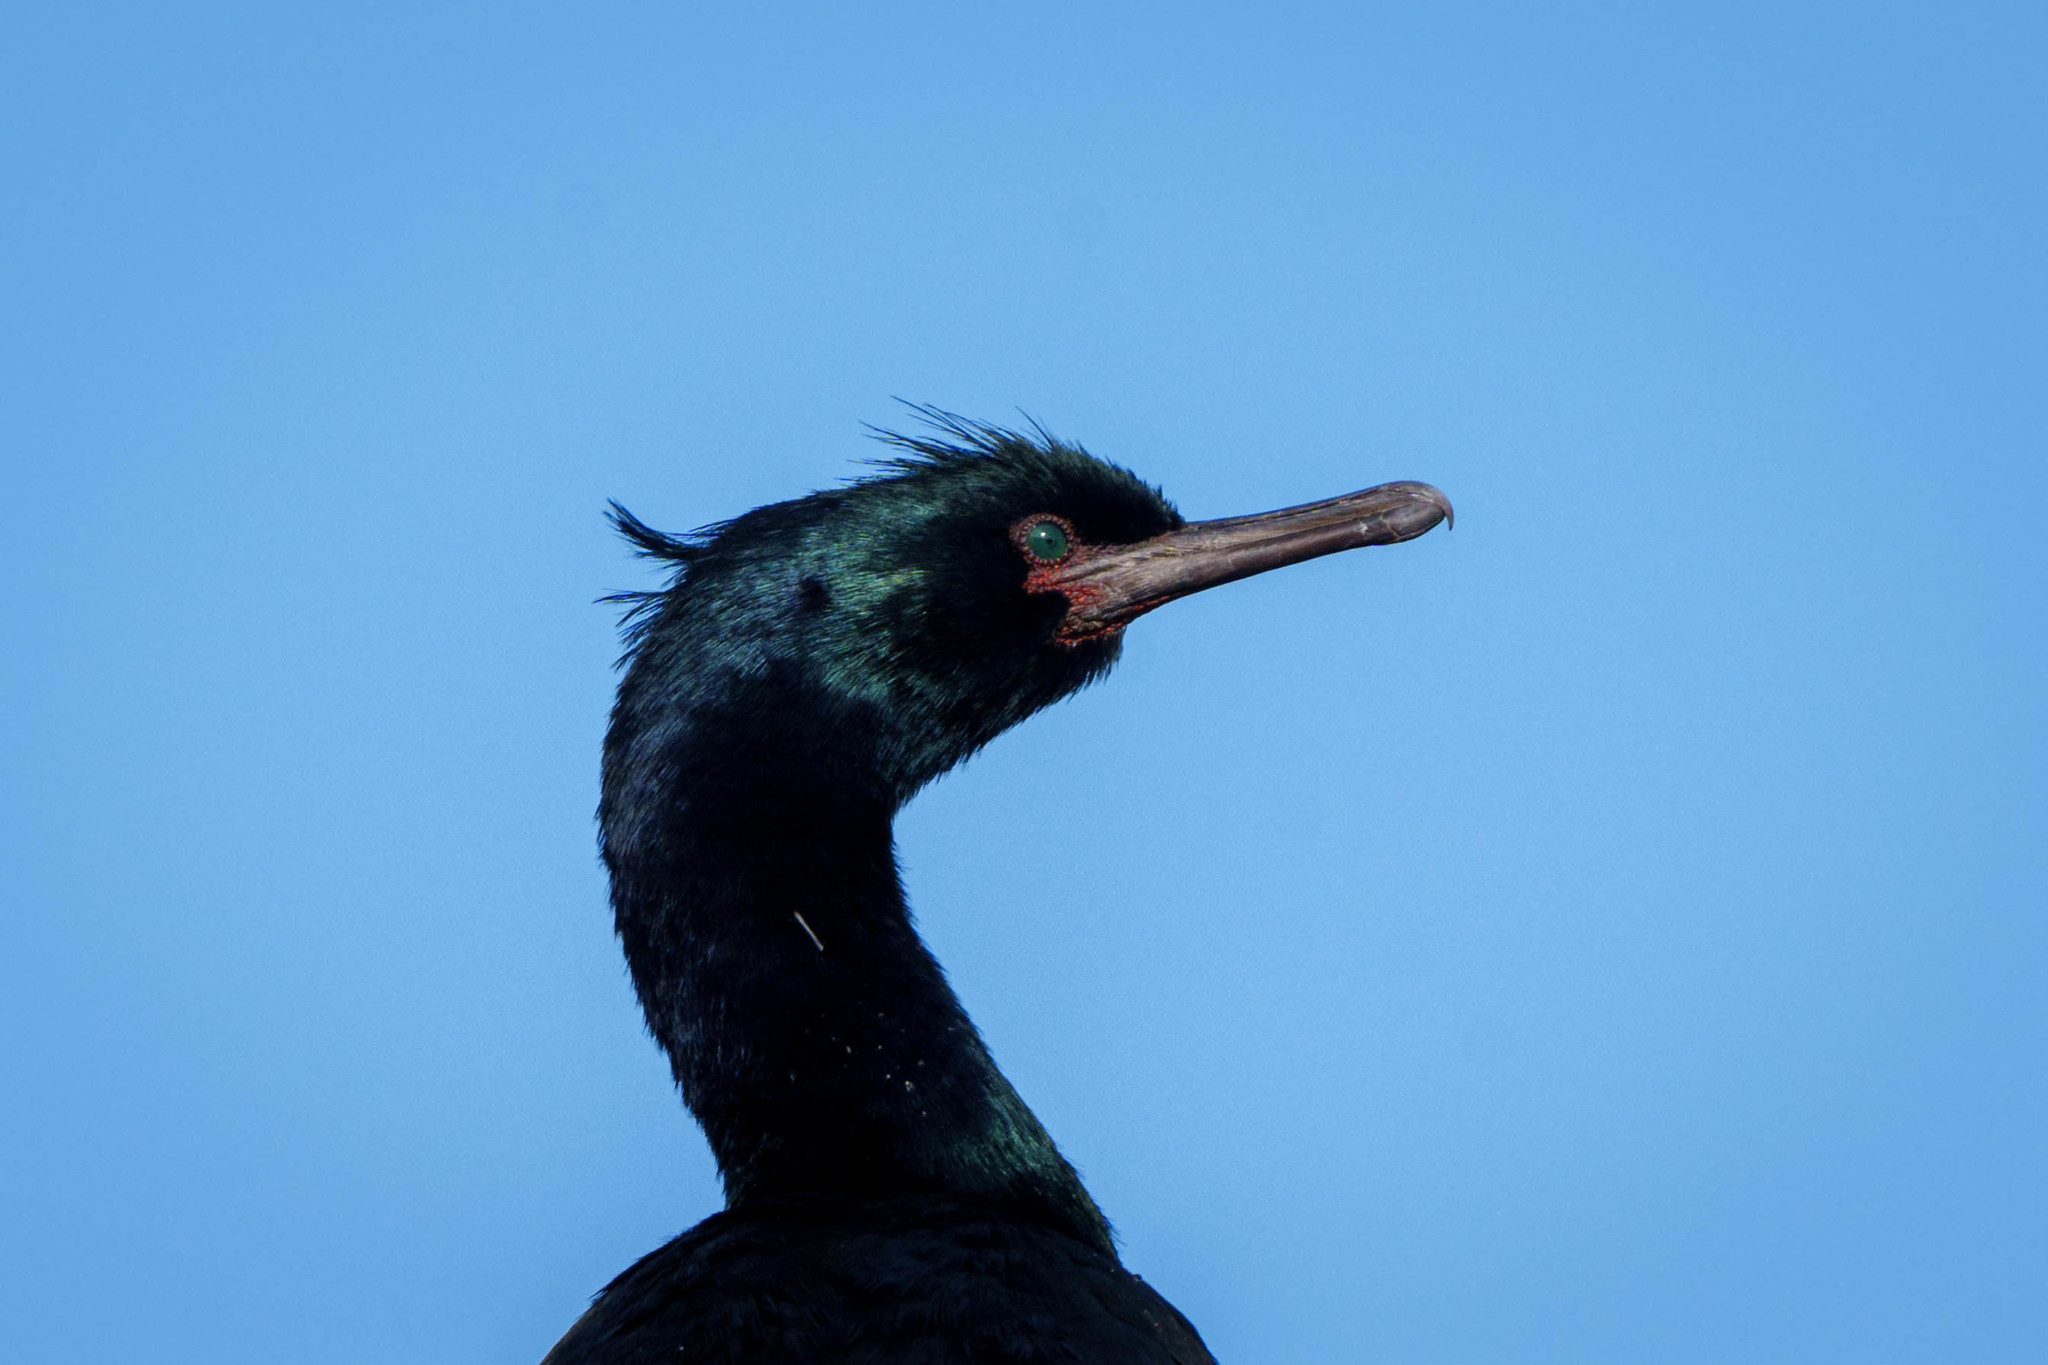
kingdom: Animalia
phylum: Chordata
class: Aves
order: Suliformes
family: Phalacrocoracidae
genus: Phalacrocorax
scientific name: Phalacrocorax pelagicus
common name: Pelagic cormorant
